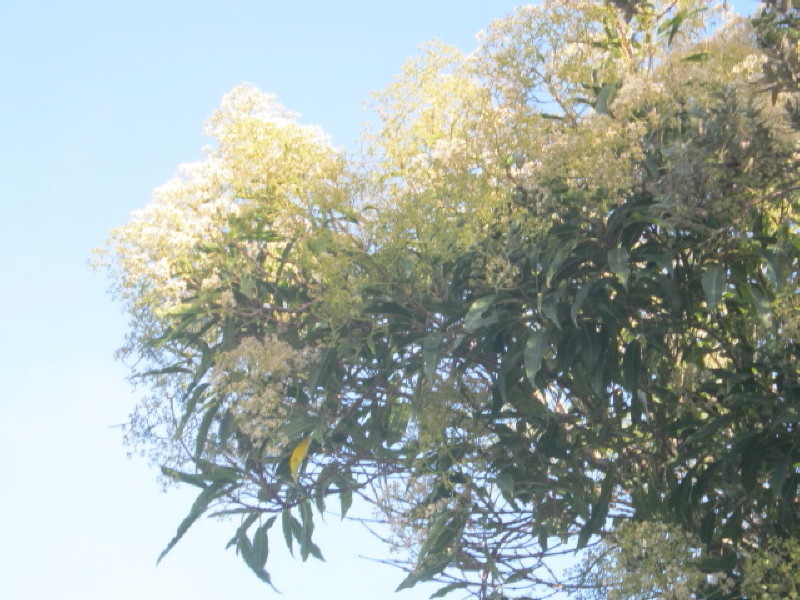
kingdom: Plantae
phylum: Tracheophyta
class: Magnoliopsida
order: Lamiales
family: Stilbaceae
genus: Nuxia
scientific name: Nuxia floribunda
